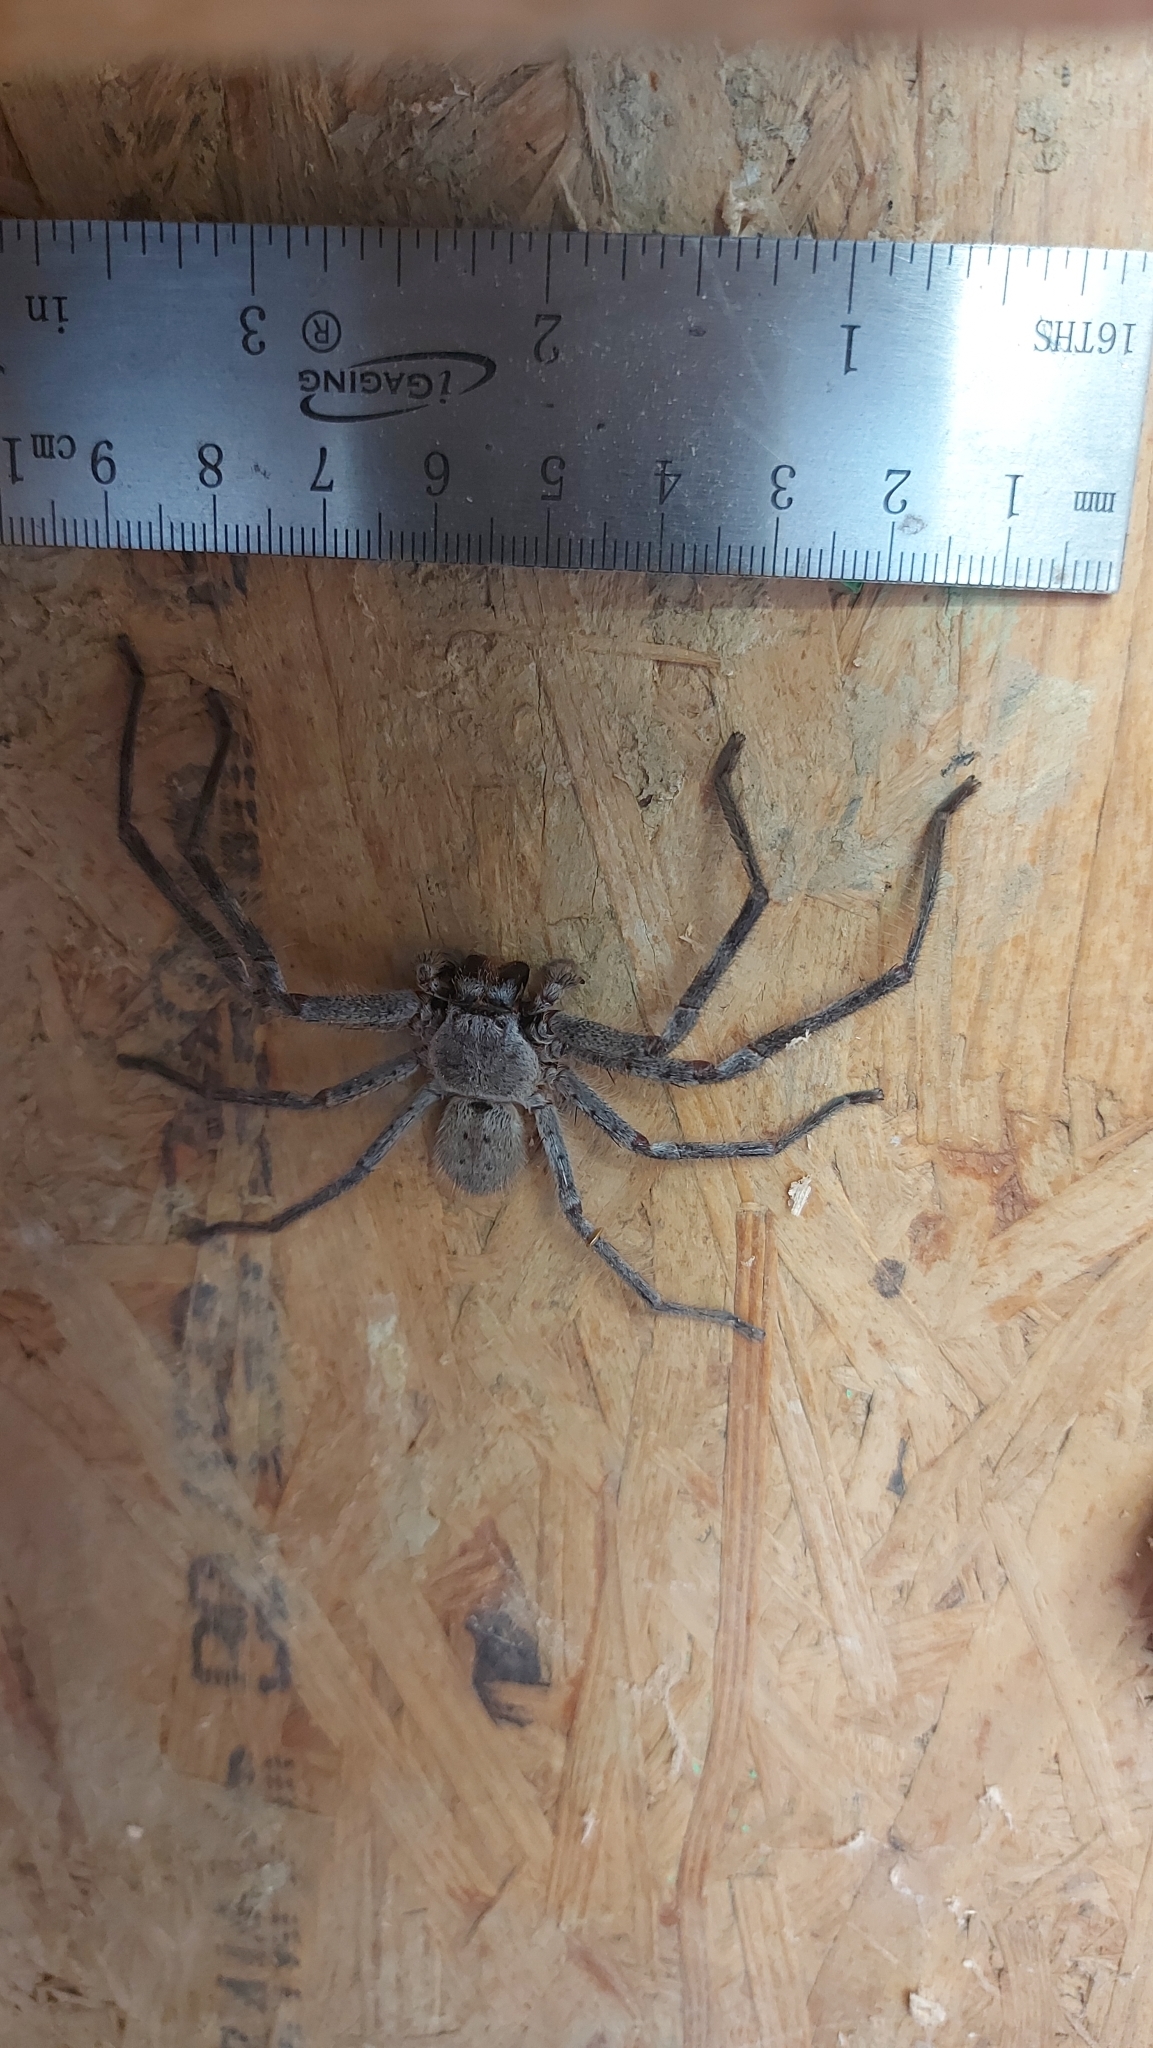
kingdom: Animalia
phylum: Arthropoda
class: Arachnida
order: Araneae
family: Sparassidae
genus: Isopeda
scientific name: Isopeda montana
